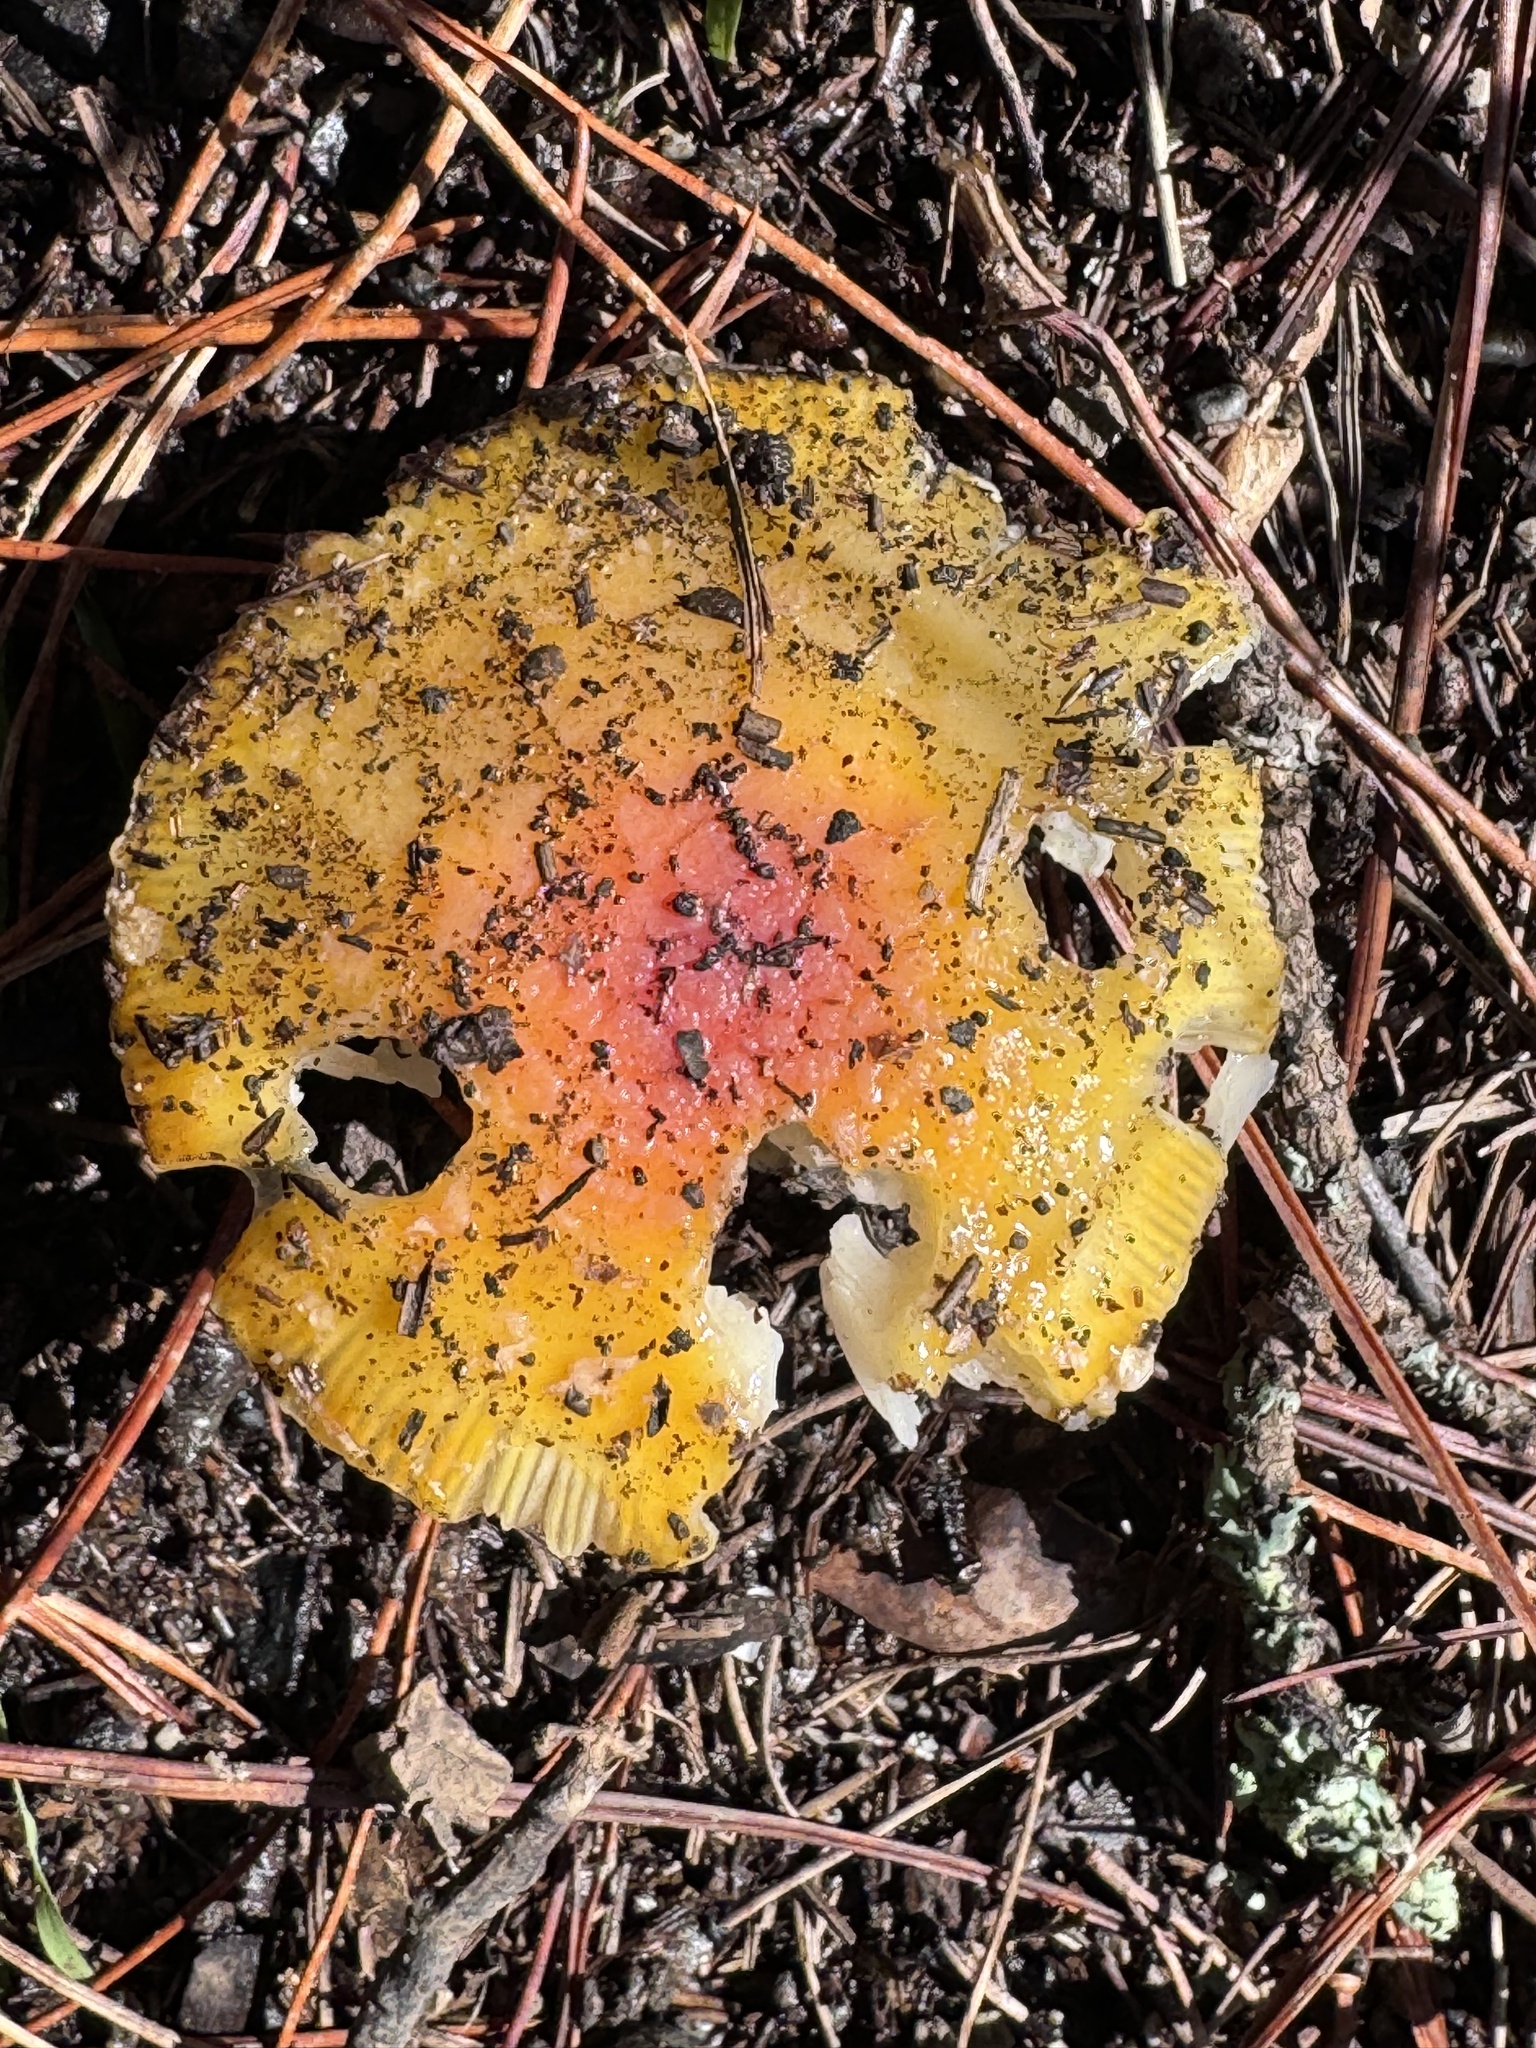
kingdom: Fungi
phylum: Basidiomycota
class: Agaricomycetes
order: Agaricales
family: Amanitaceae
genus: Amanita
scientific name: Amanita muscaria
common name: Fly agaric
